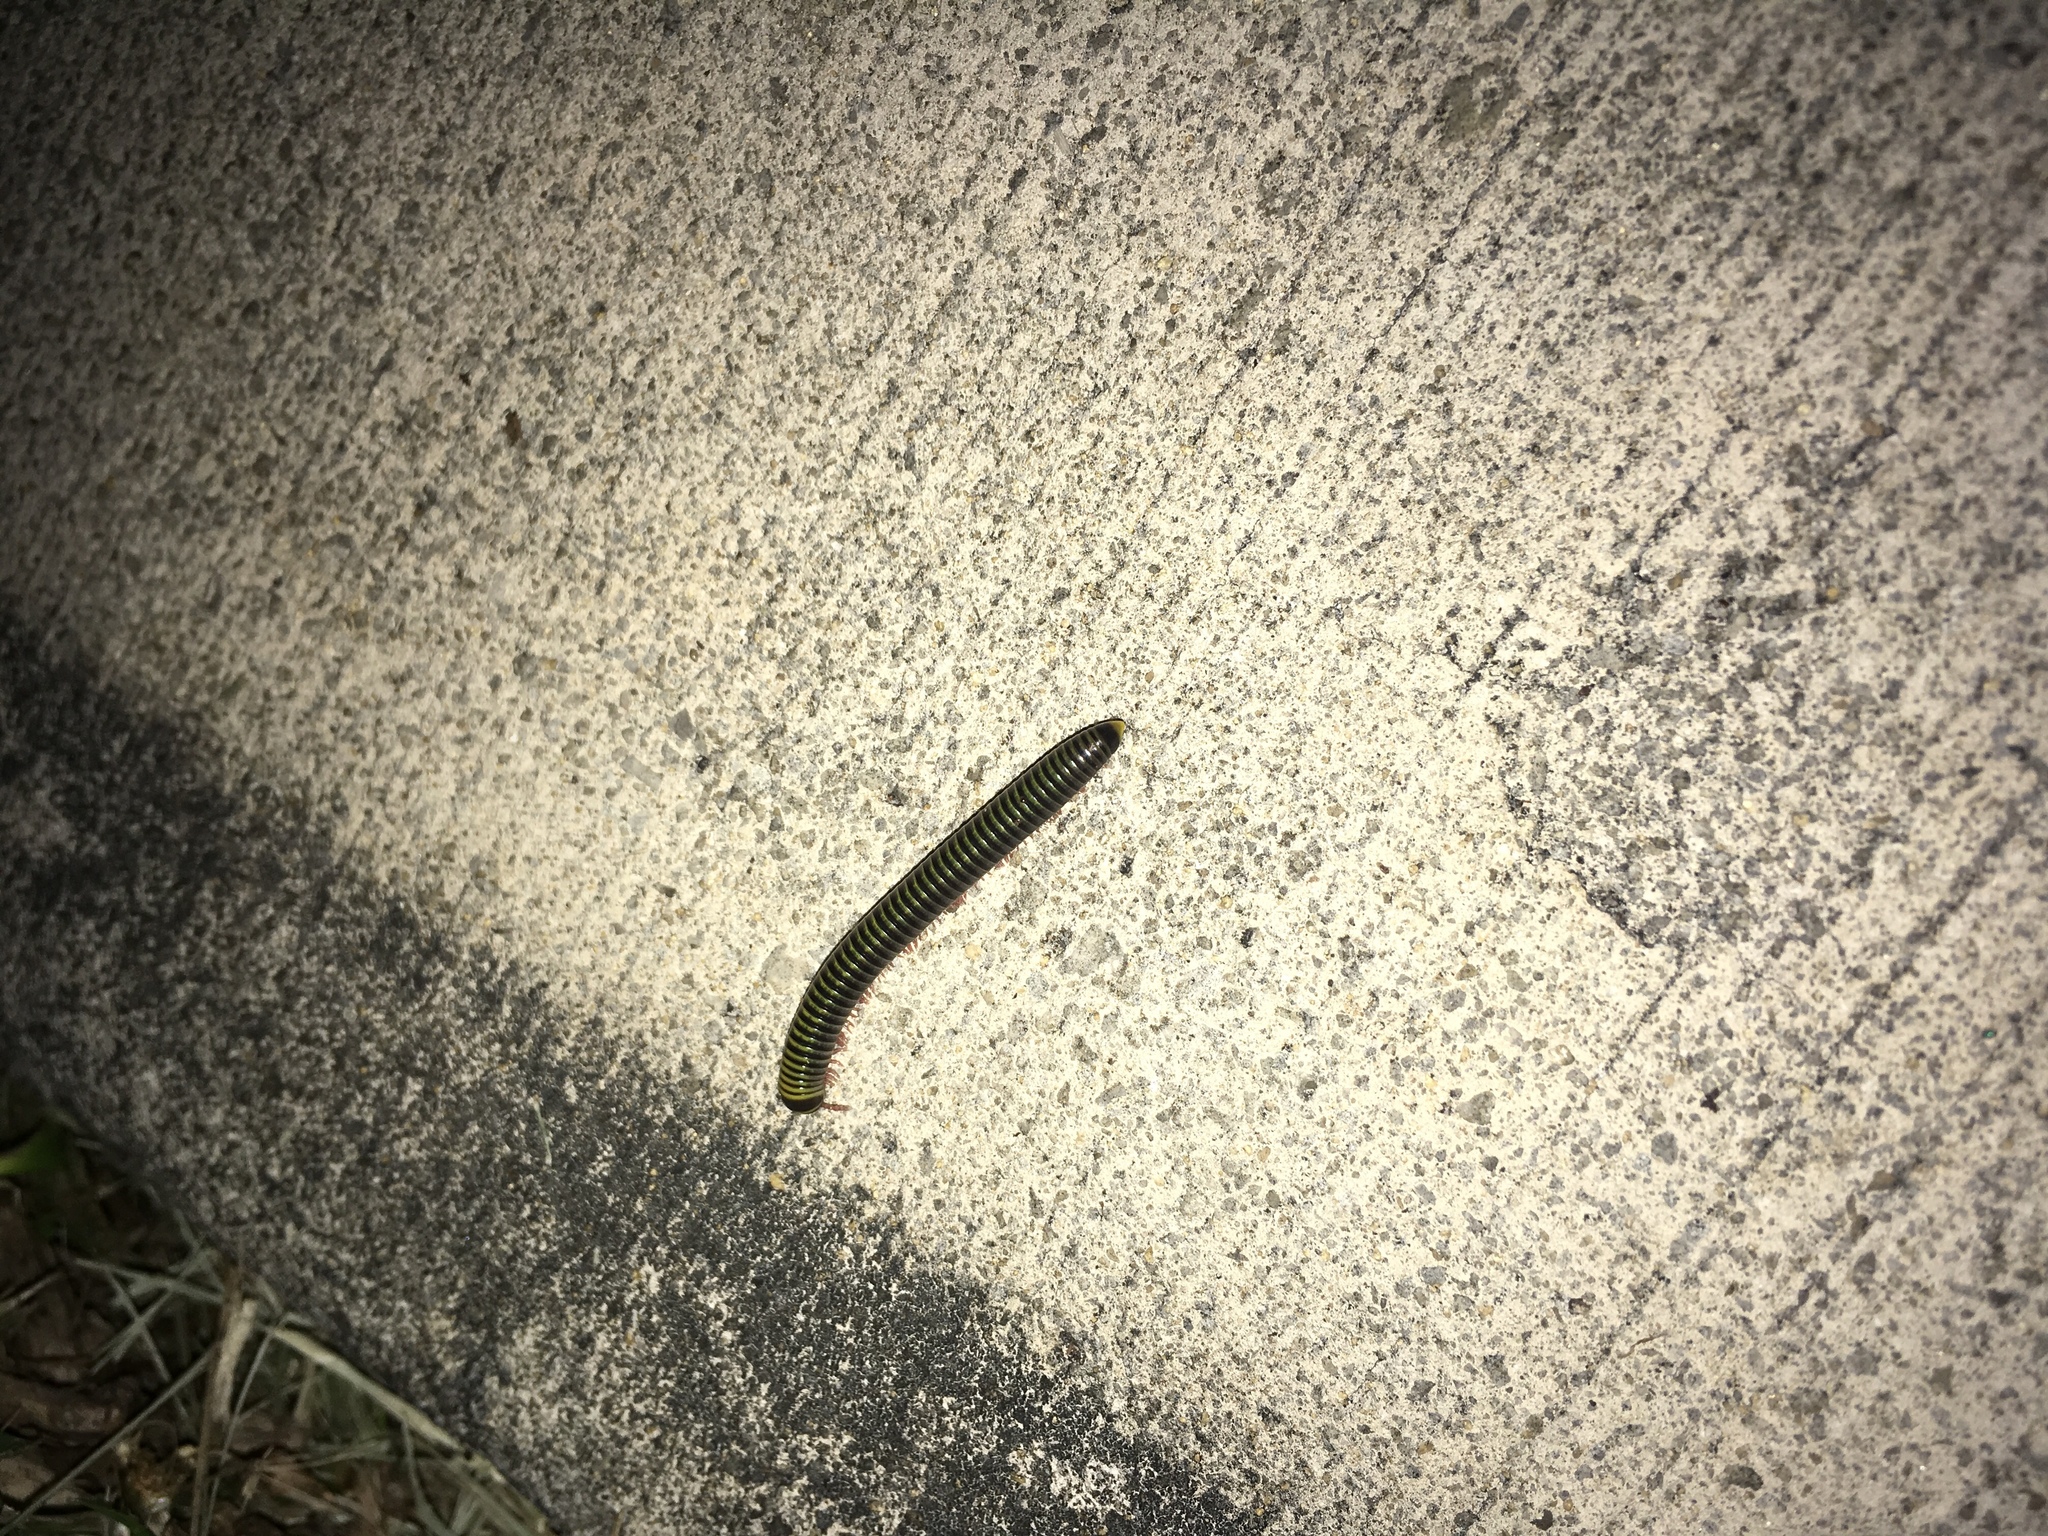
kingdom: Animalia
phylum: Arthropoda
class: Diplopoda
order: Spirobolida
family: Rhinocricidae
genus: Anadenobolus
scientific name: Anadenobolus monilicornis
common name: Caribbean millipede
